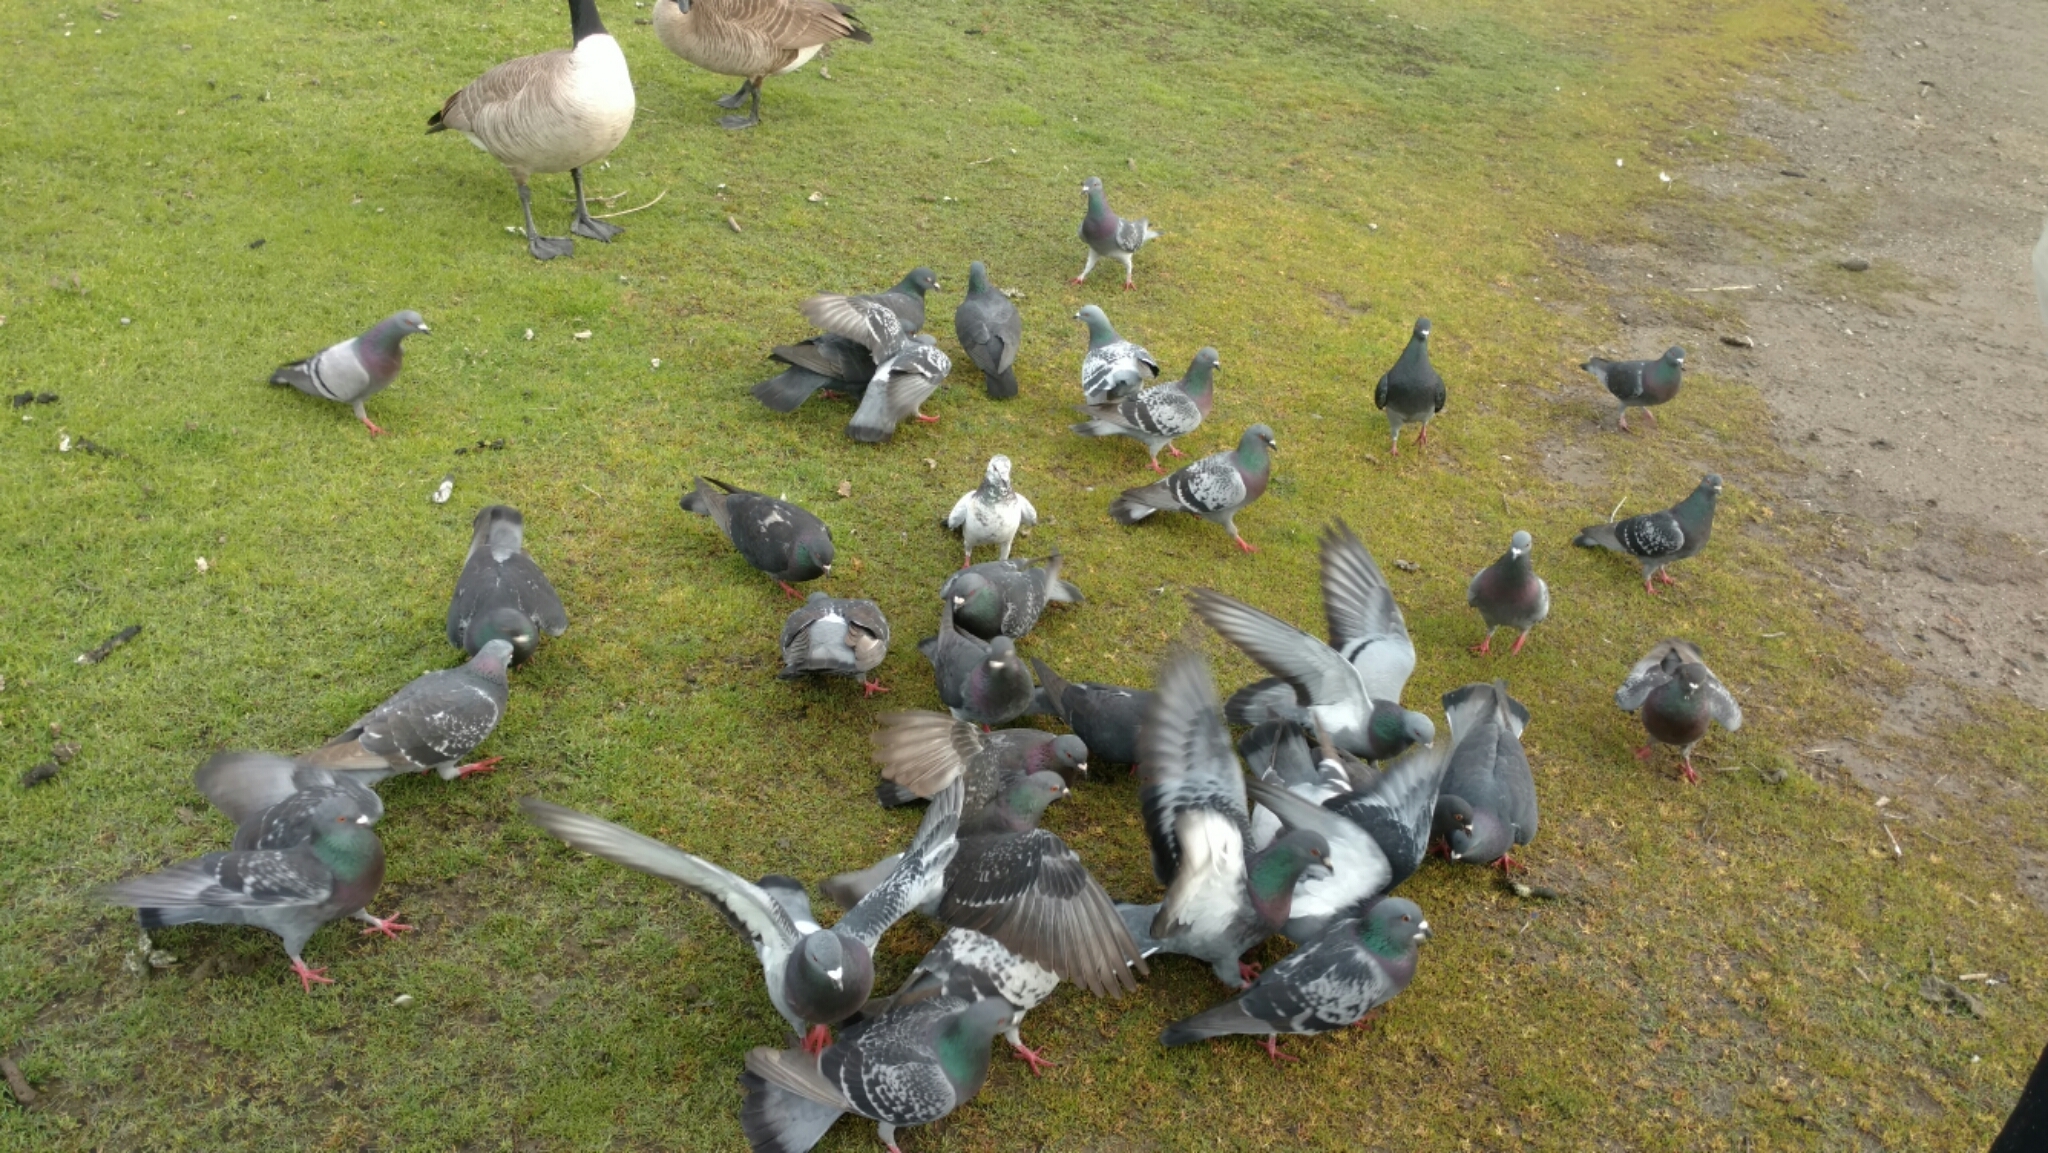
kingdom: Animalia
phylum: Chordata
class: Aves
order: Columbiformes
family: Columbidae
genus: Columba
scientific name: Columba livia
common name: Rock pigeon
